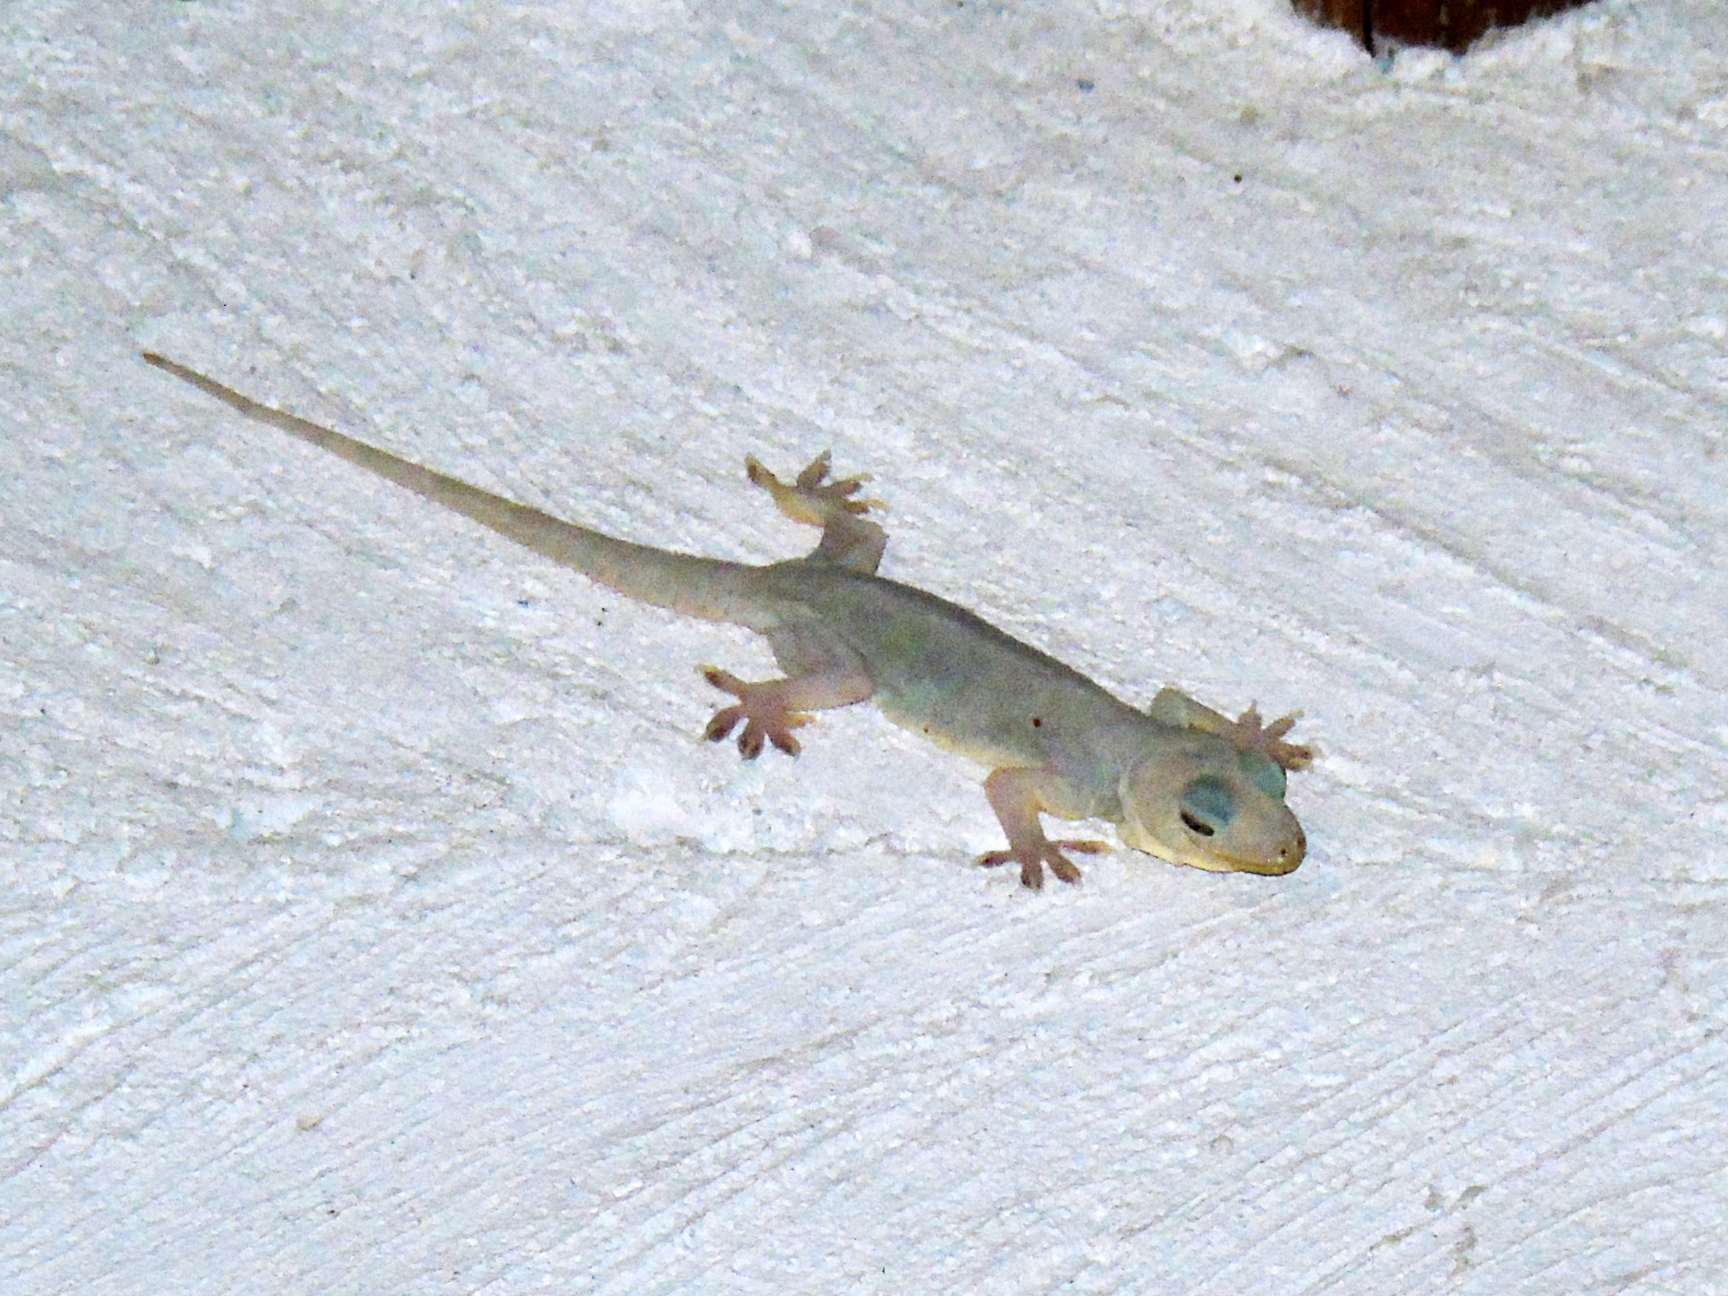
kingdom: Animalia
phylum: Chordata
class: Squamata
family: Gekkonidae
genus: Hemidactylus
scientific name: Hemidactylus flaviviridis
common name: Northern house gecko
